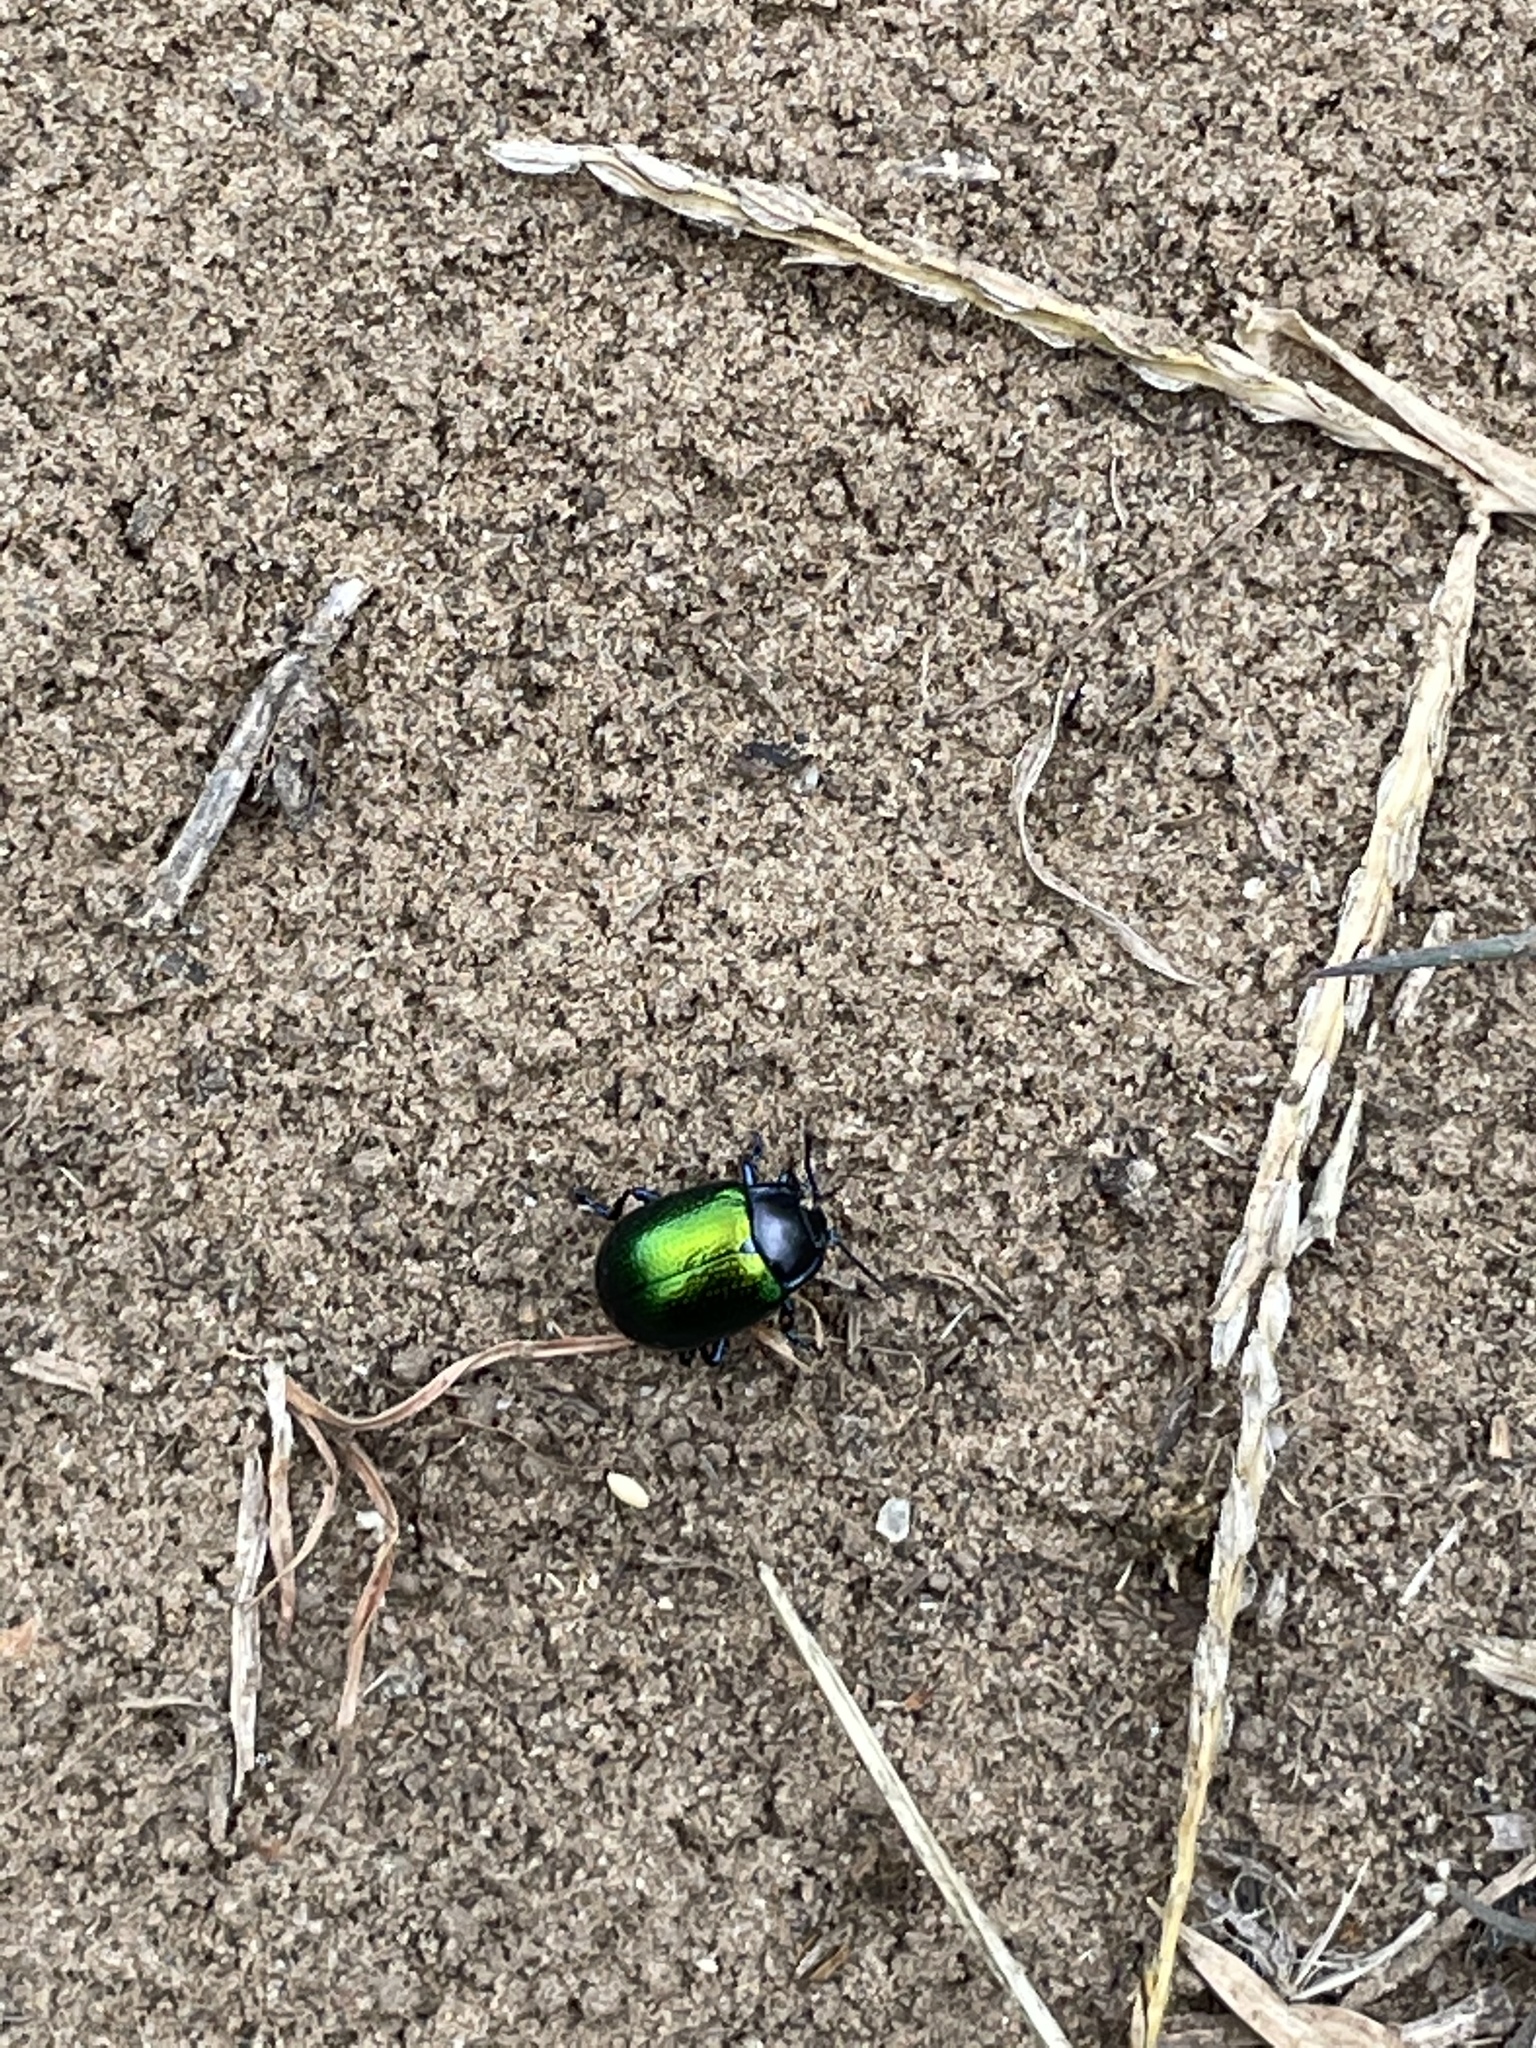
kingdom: Animalia
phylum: Arthropoda
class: Insecta
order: Coleoptera
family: Chrysomelidae
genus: Chrysolina
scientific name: Chrysolina auripennis
